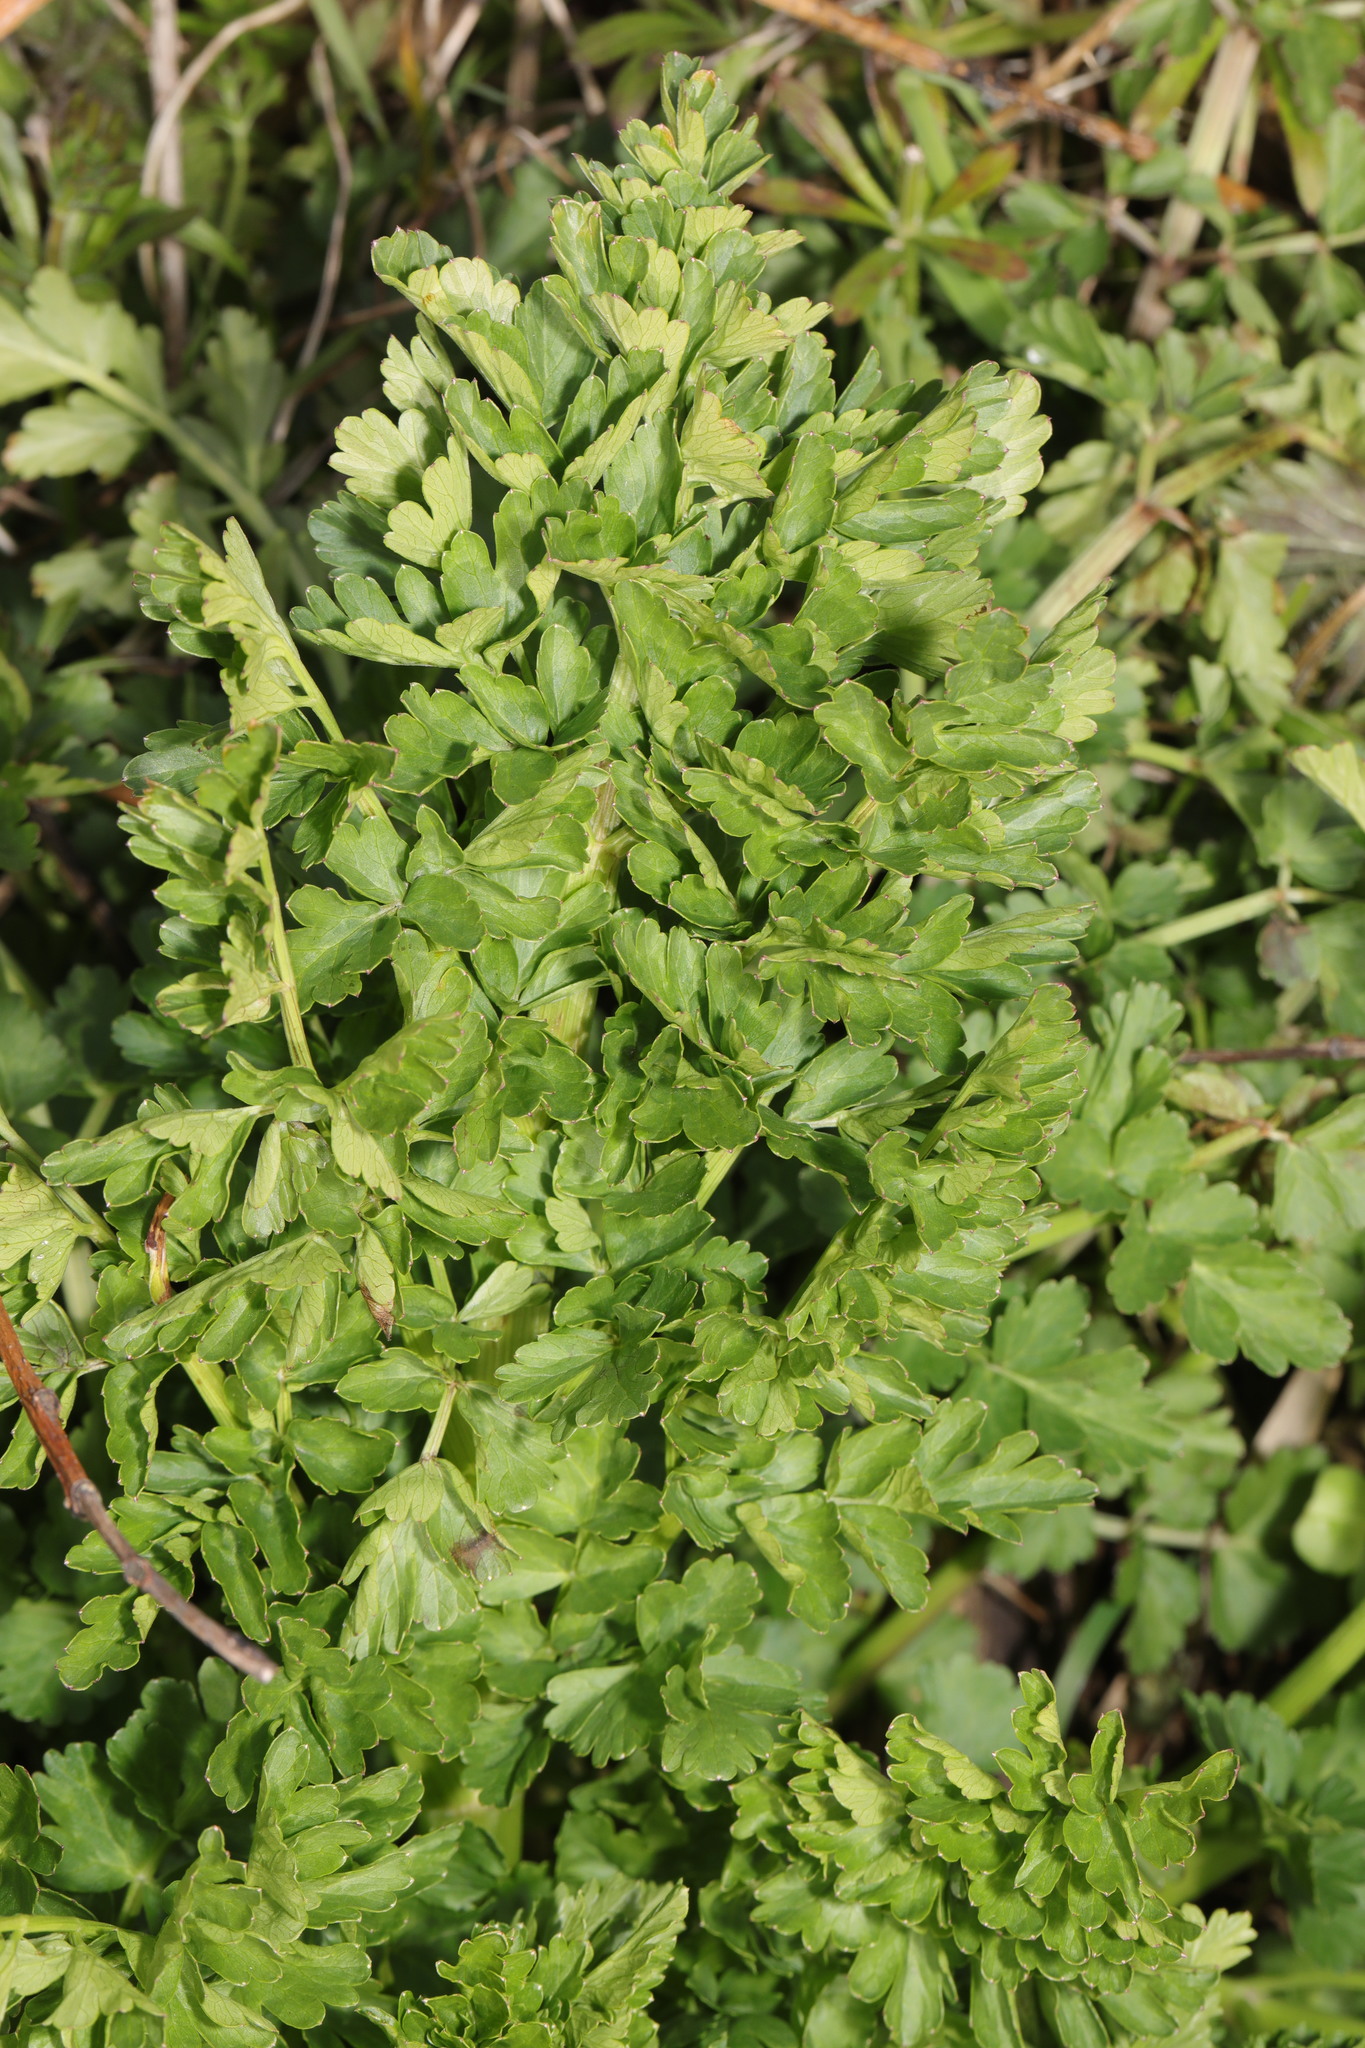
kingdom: Plantae
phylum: Tracheophyta
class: Magnoliopsida
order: Apiales
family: Apiaceae
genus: Oenanthe
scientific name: Oenanthe crocata
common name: Hemlock water-dropwort
